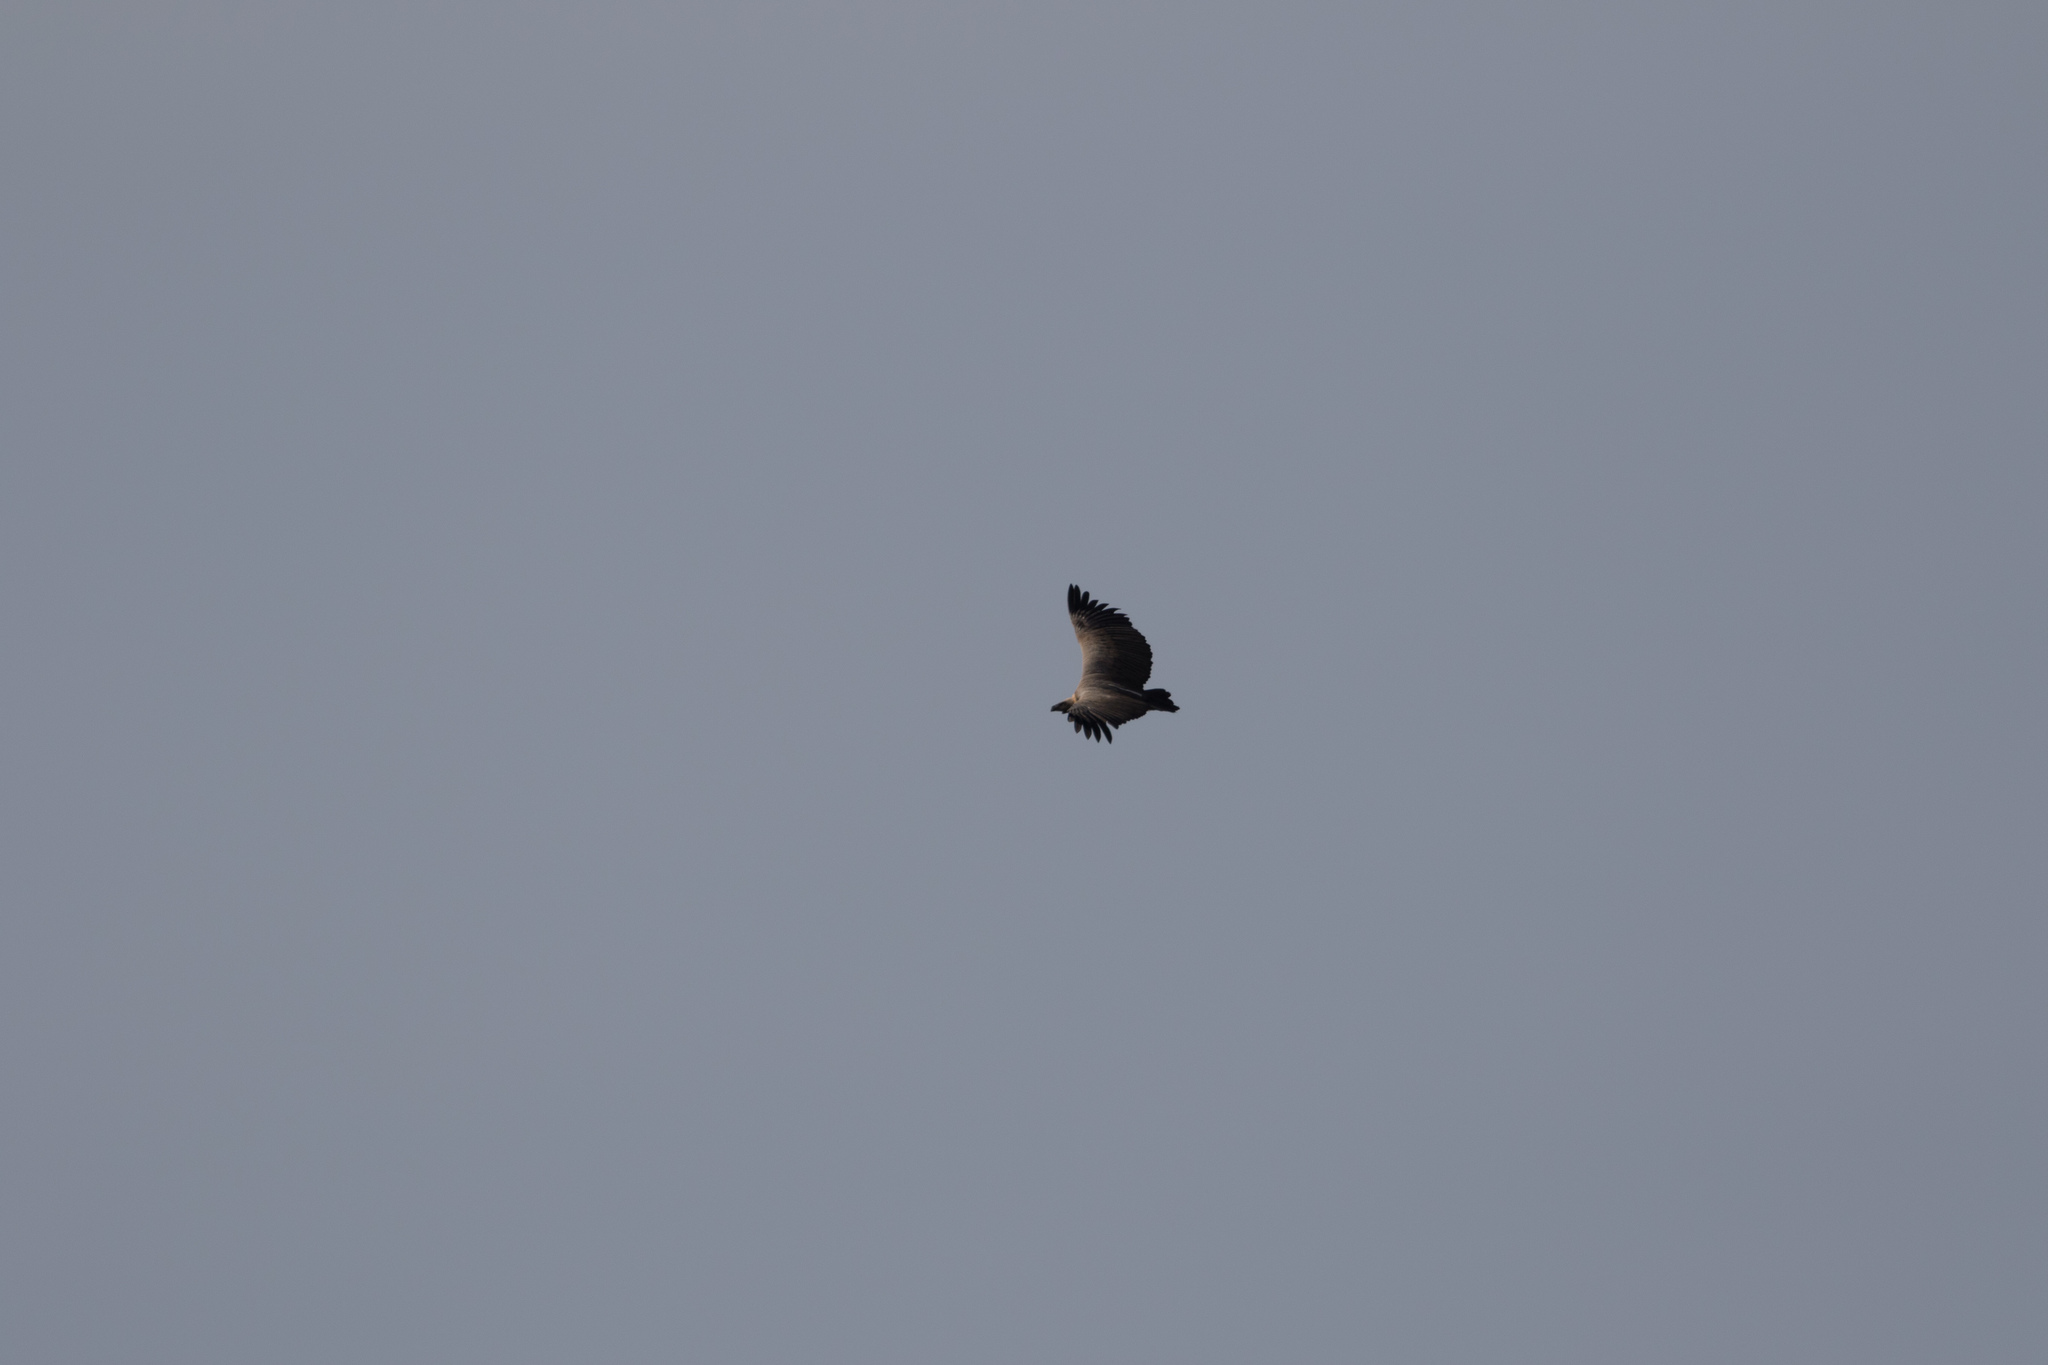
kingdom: Animalia
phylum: Chordata
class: Aves
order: Accipitriformes
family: Accipitridae
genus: Gyps
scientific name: Gyps africanus
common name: White-backed vulture
